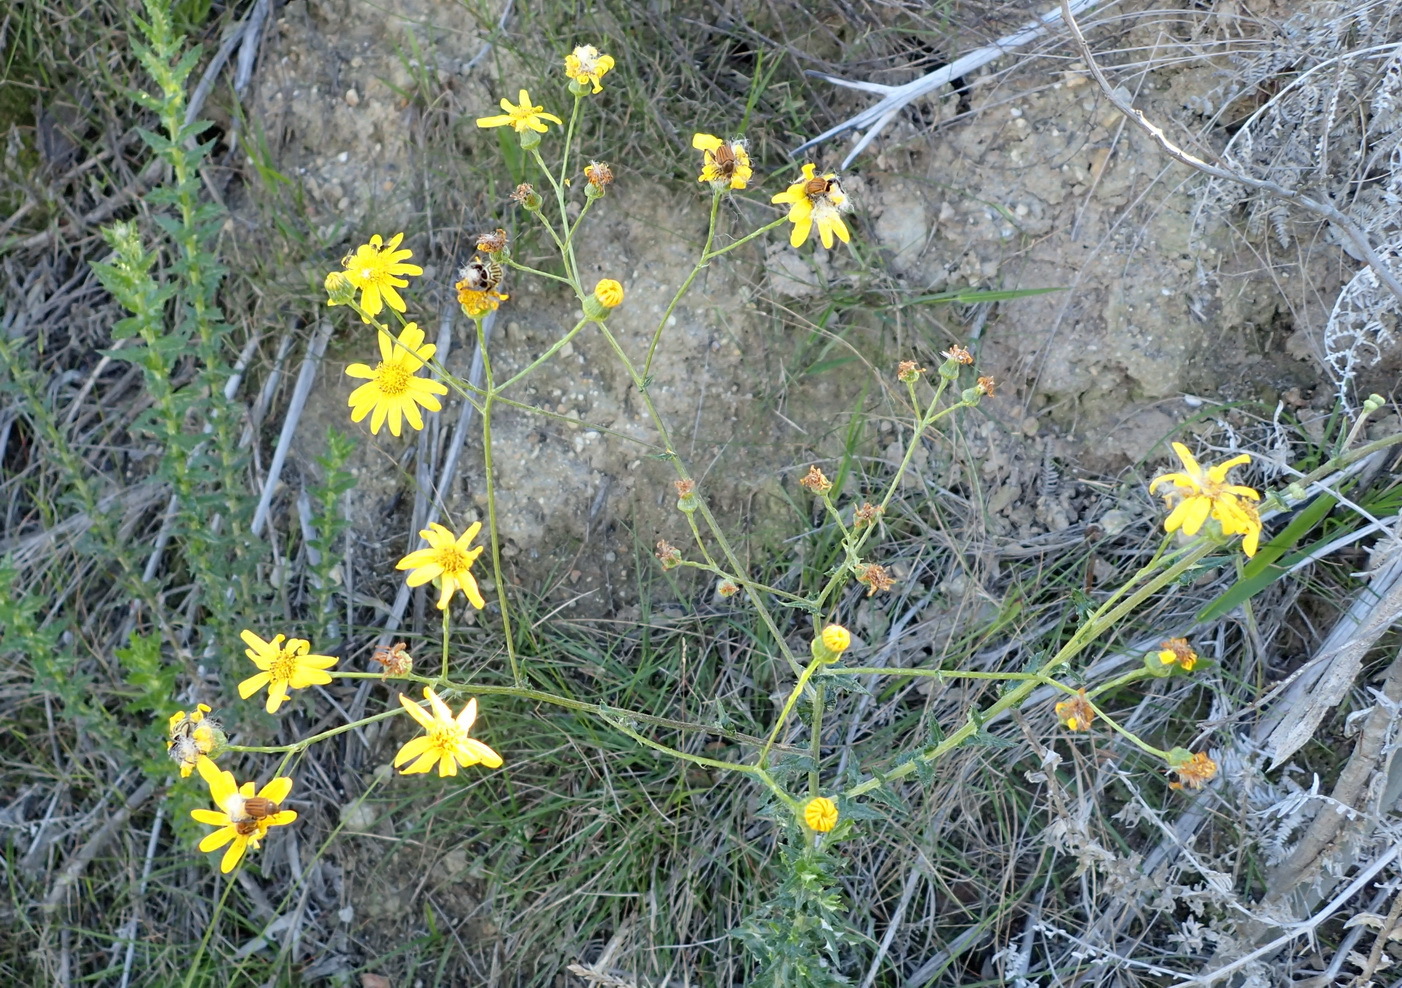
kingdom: Plantae
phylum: Tracheophyta
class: Magnoliopsida
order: Asterales
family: Asteraceae
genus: Senecio
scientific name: Senecio ilicifolius
